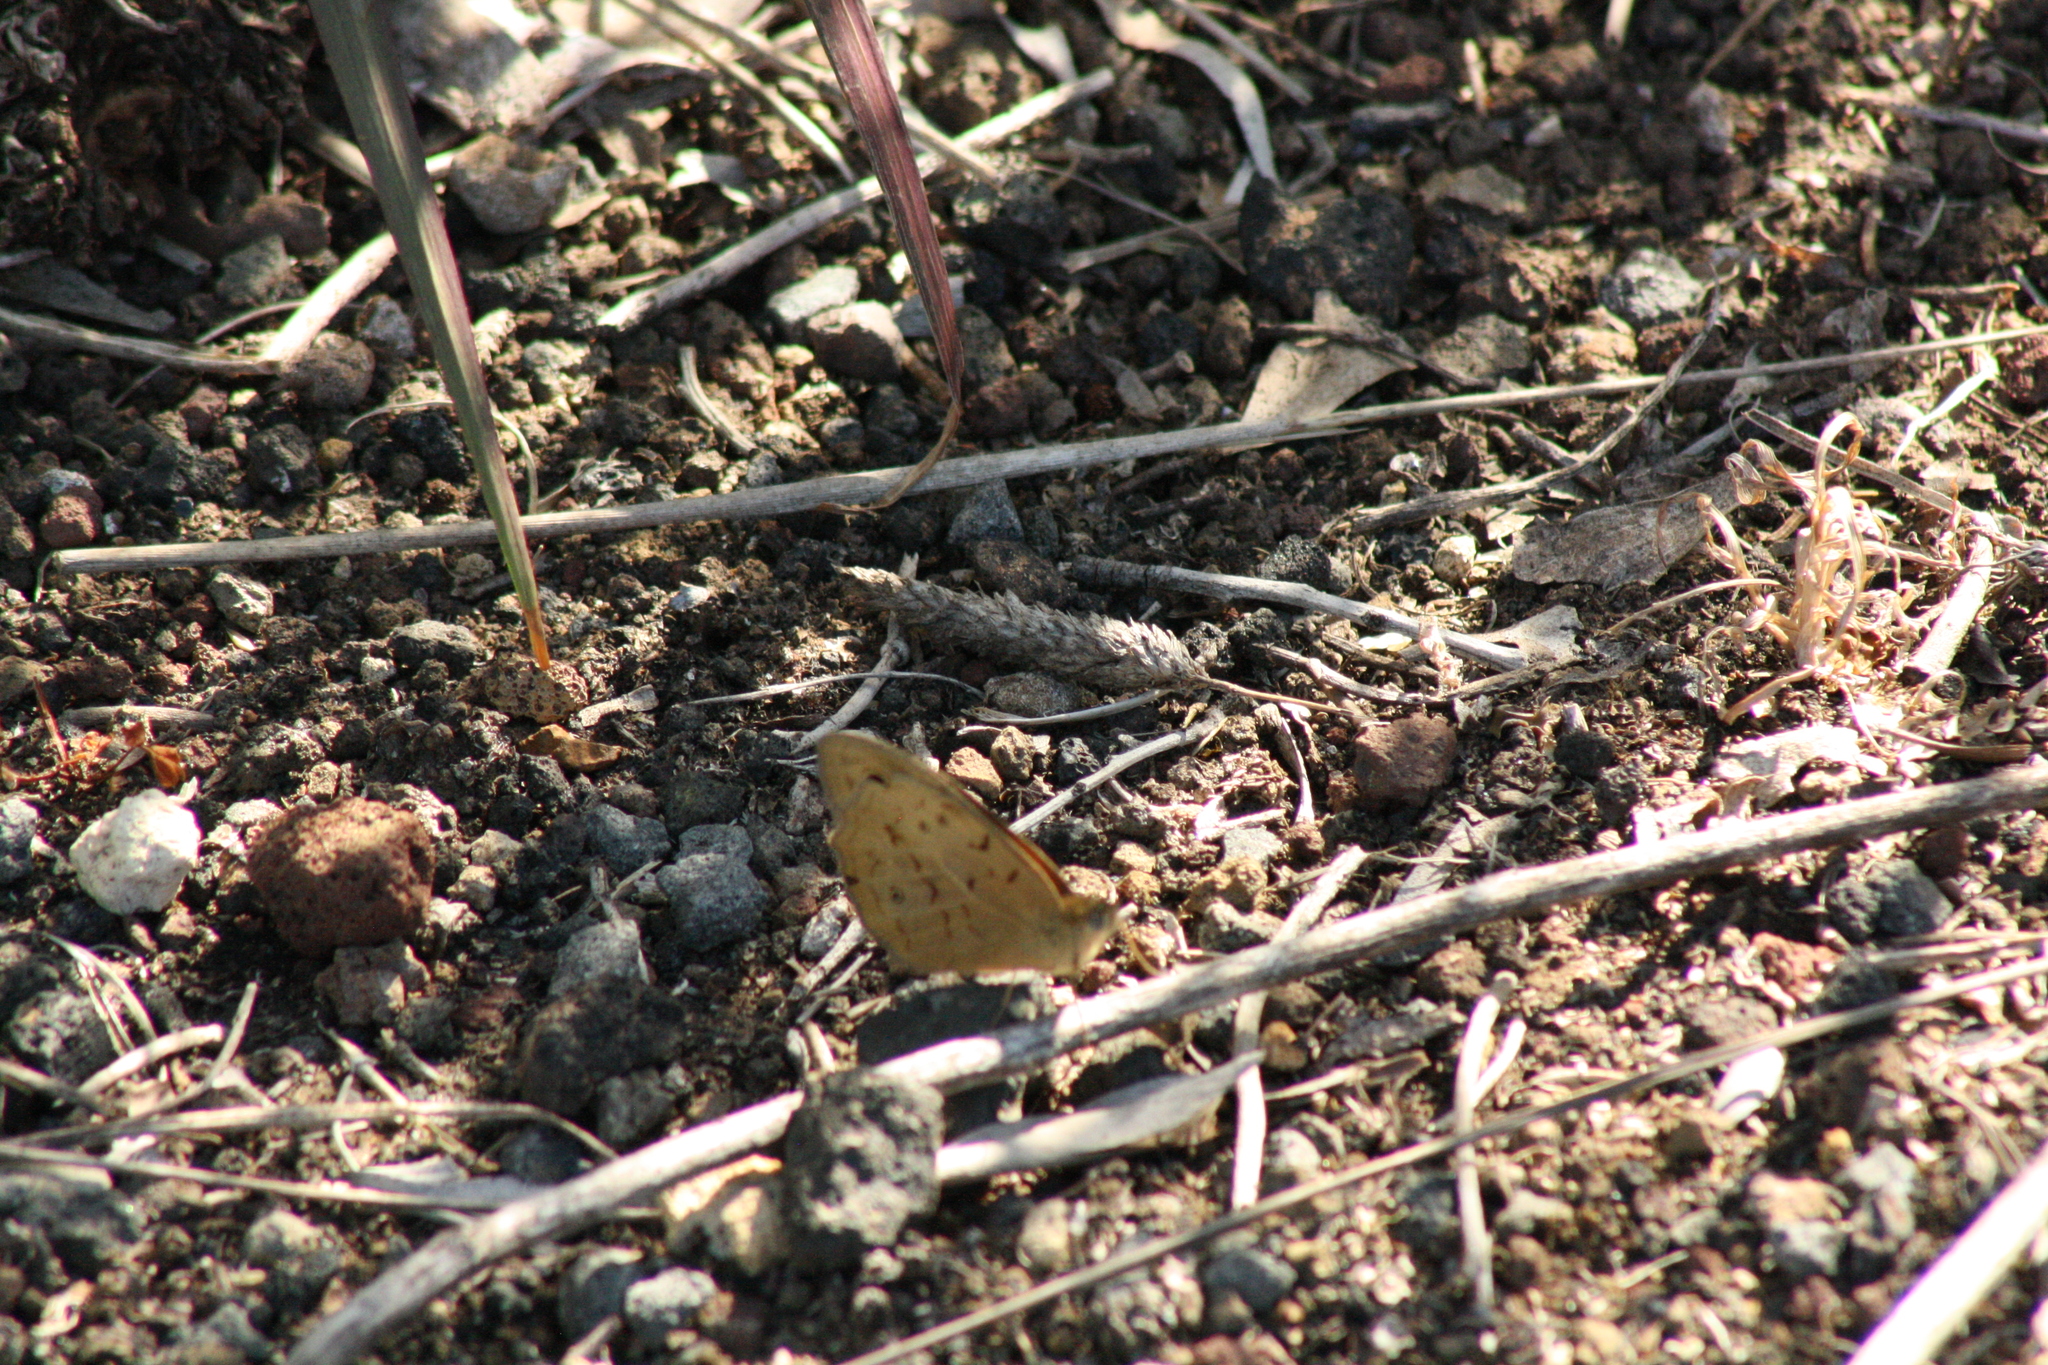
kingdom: Animalia
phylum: Arthropoda
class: Insecta
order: Lepidoptera
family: Nymphalidae
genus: Heteronympha
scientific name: Heteronympha merope
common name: Common brown
